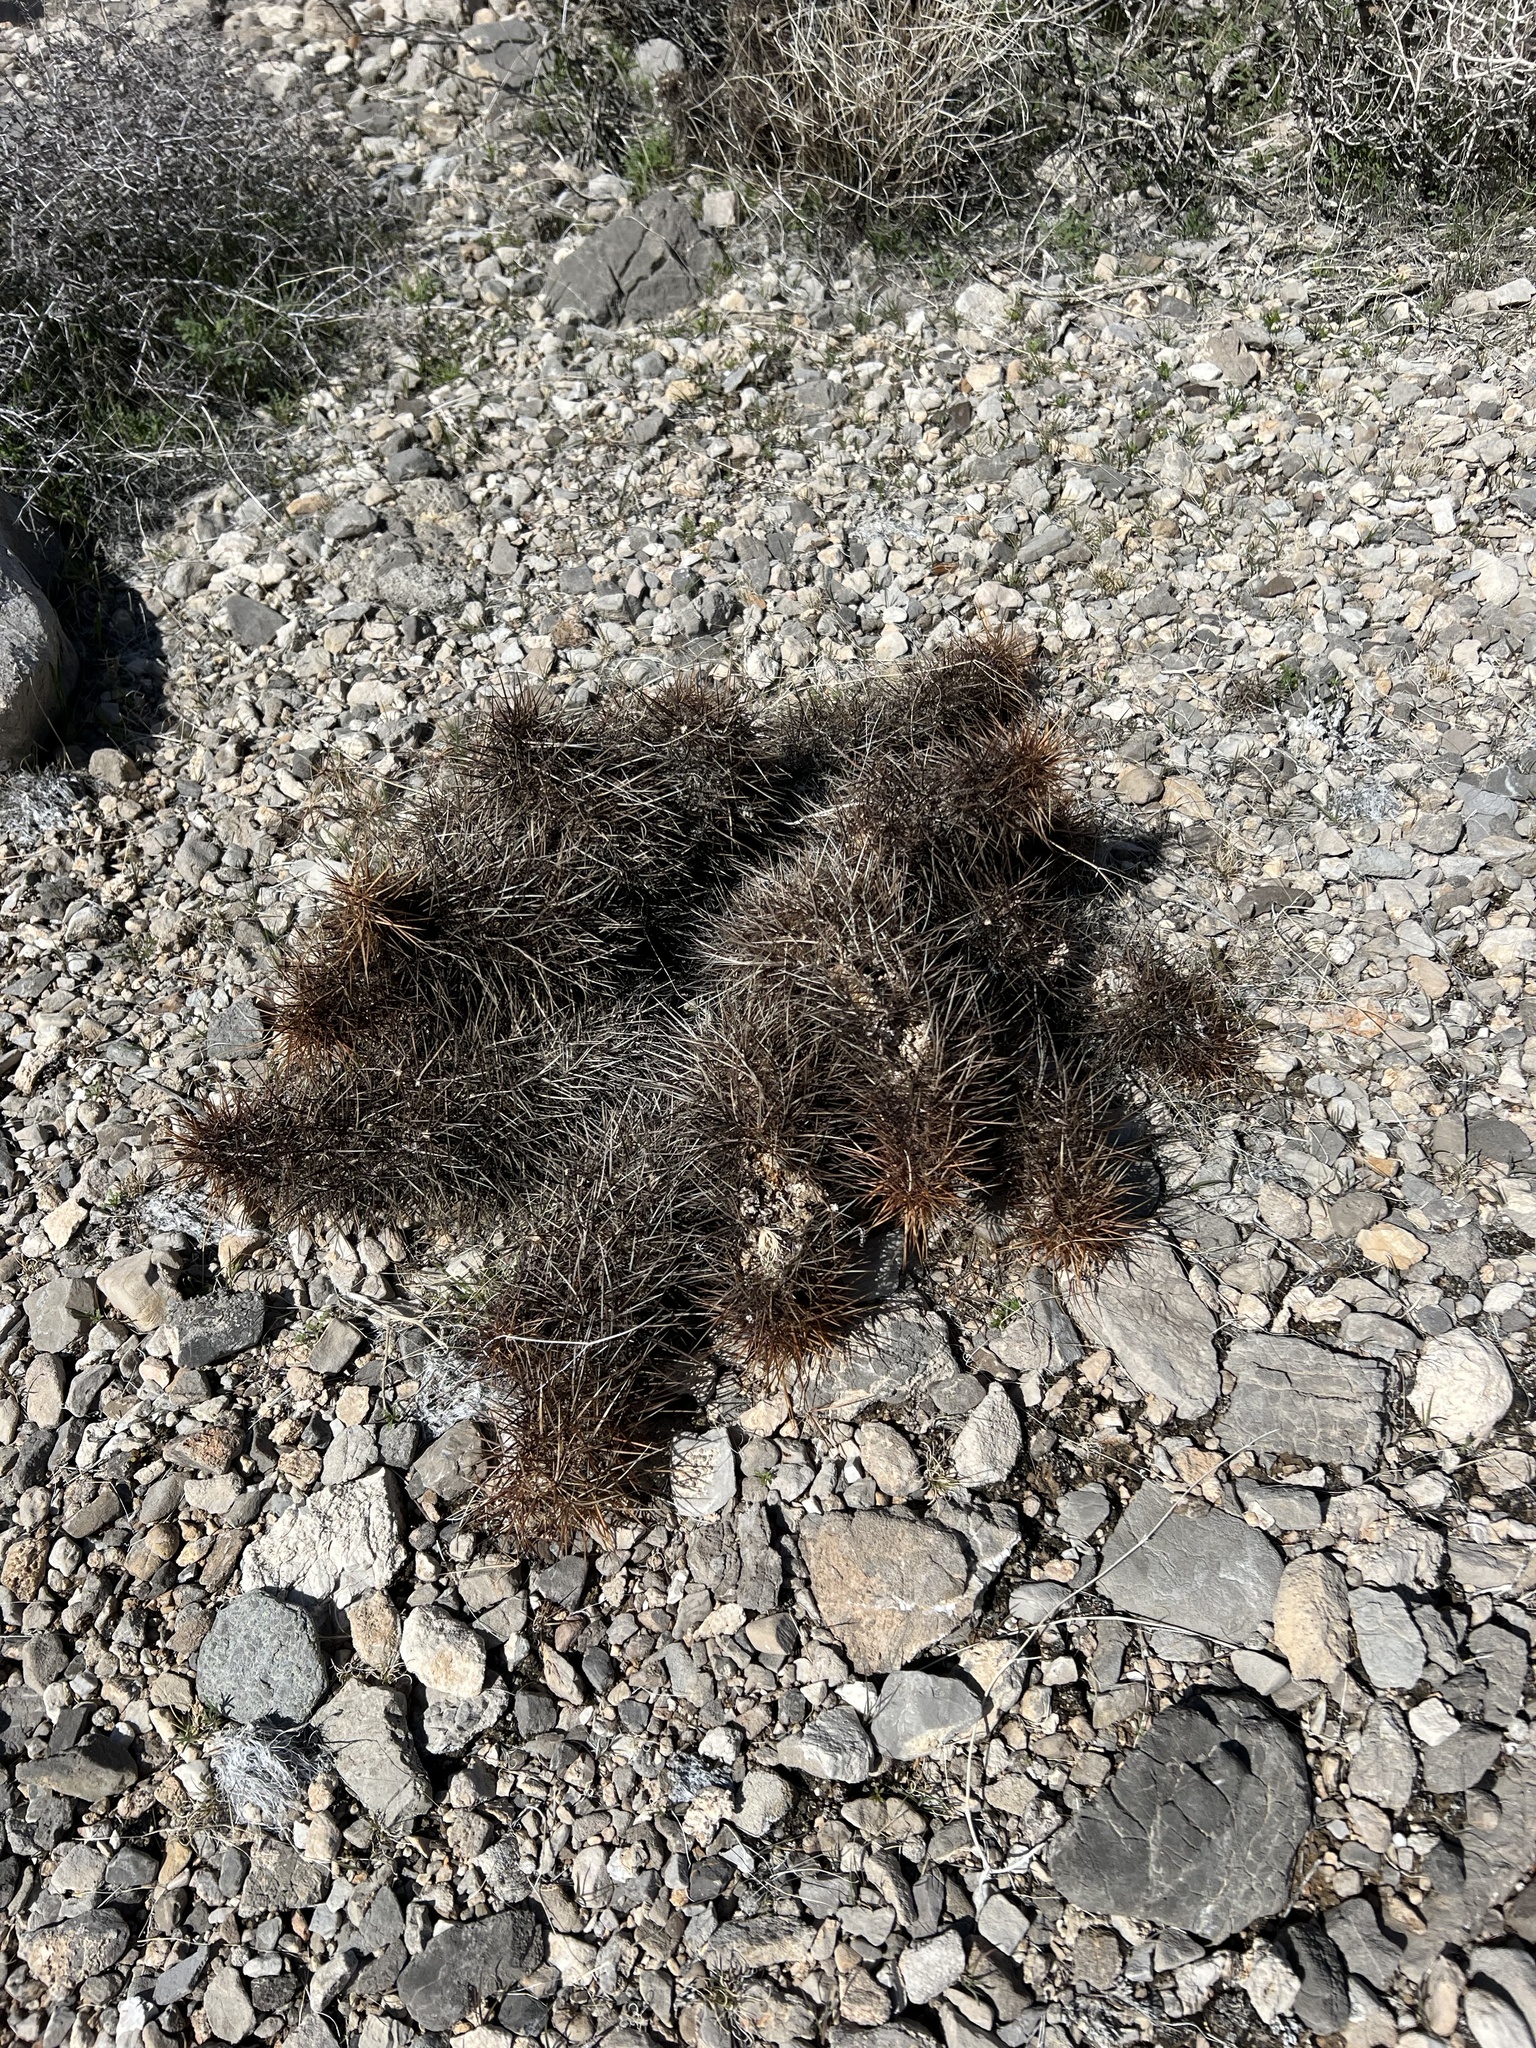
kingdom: Plantae
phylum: Tracheophyta
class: Magnoliopsida
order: Caryophyllales
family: Cactaceae
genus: Echinocereus
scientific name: Echinocereus engelmannii
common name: Engelmann's hedgehog cactus
